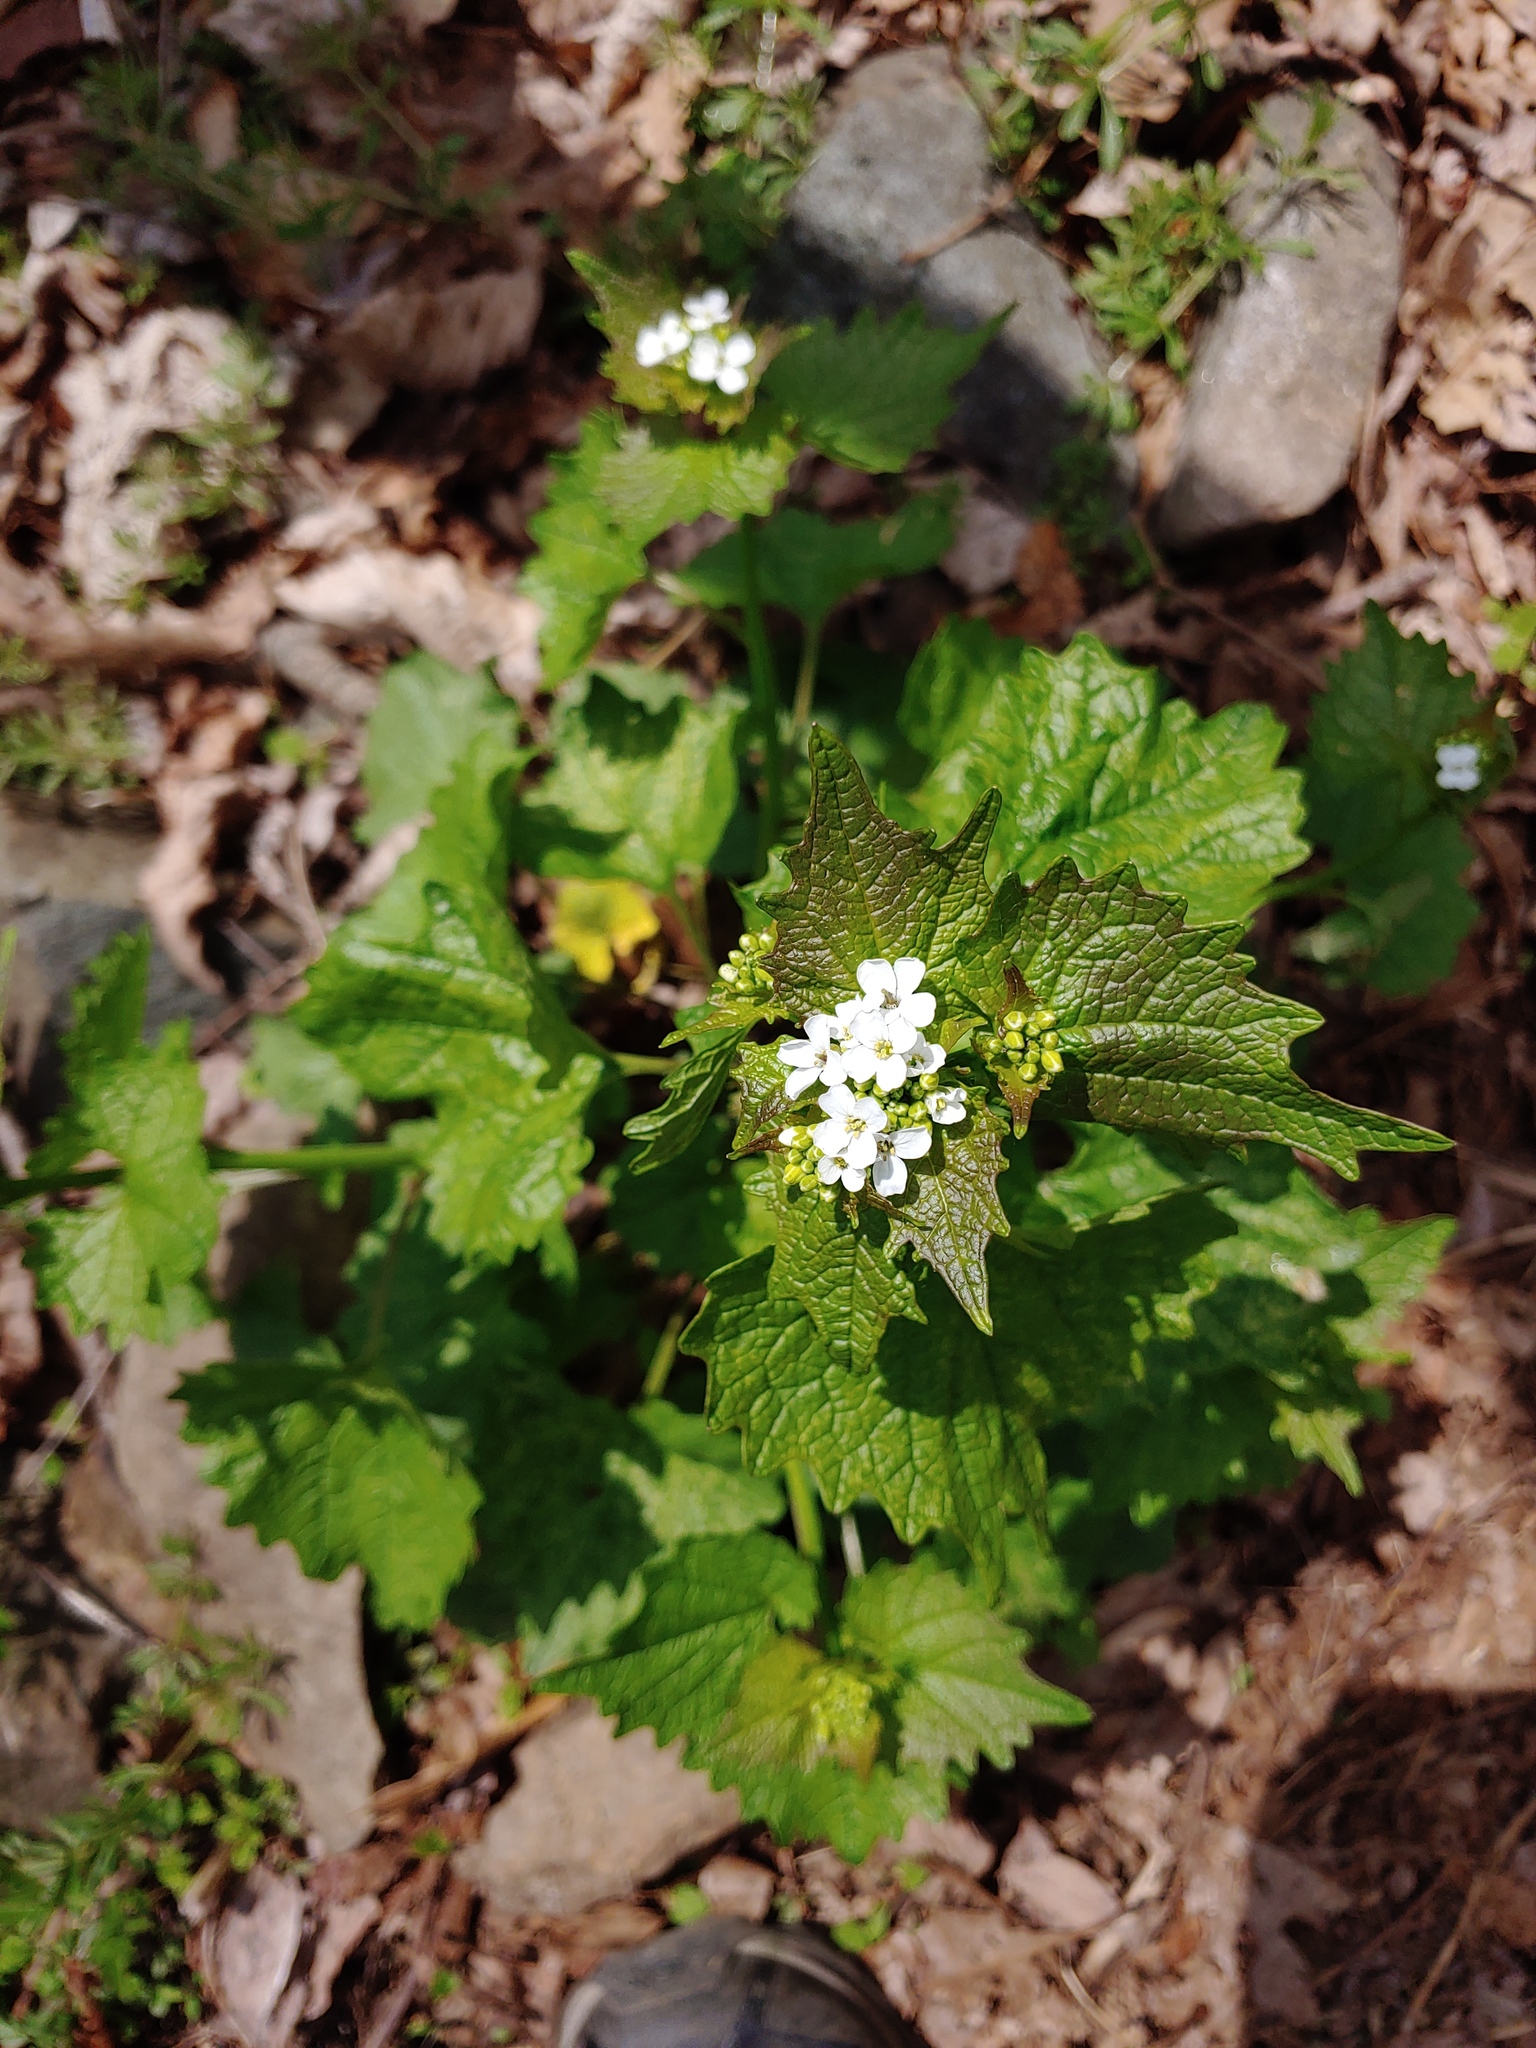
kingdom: Plantae
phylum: Tracheophyta
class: Magnoliopsida
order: Brassicales
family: Brassicaceae
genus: Alliaria
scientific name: Alliaria petiolata
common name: Garlic mustard
